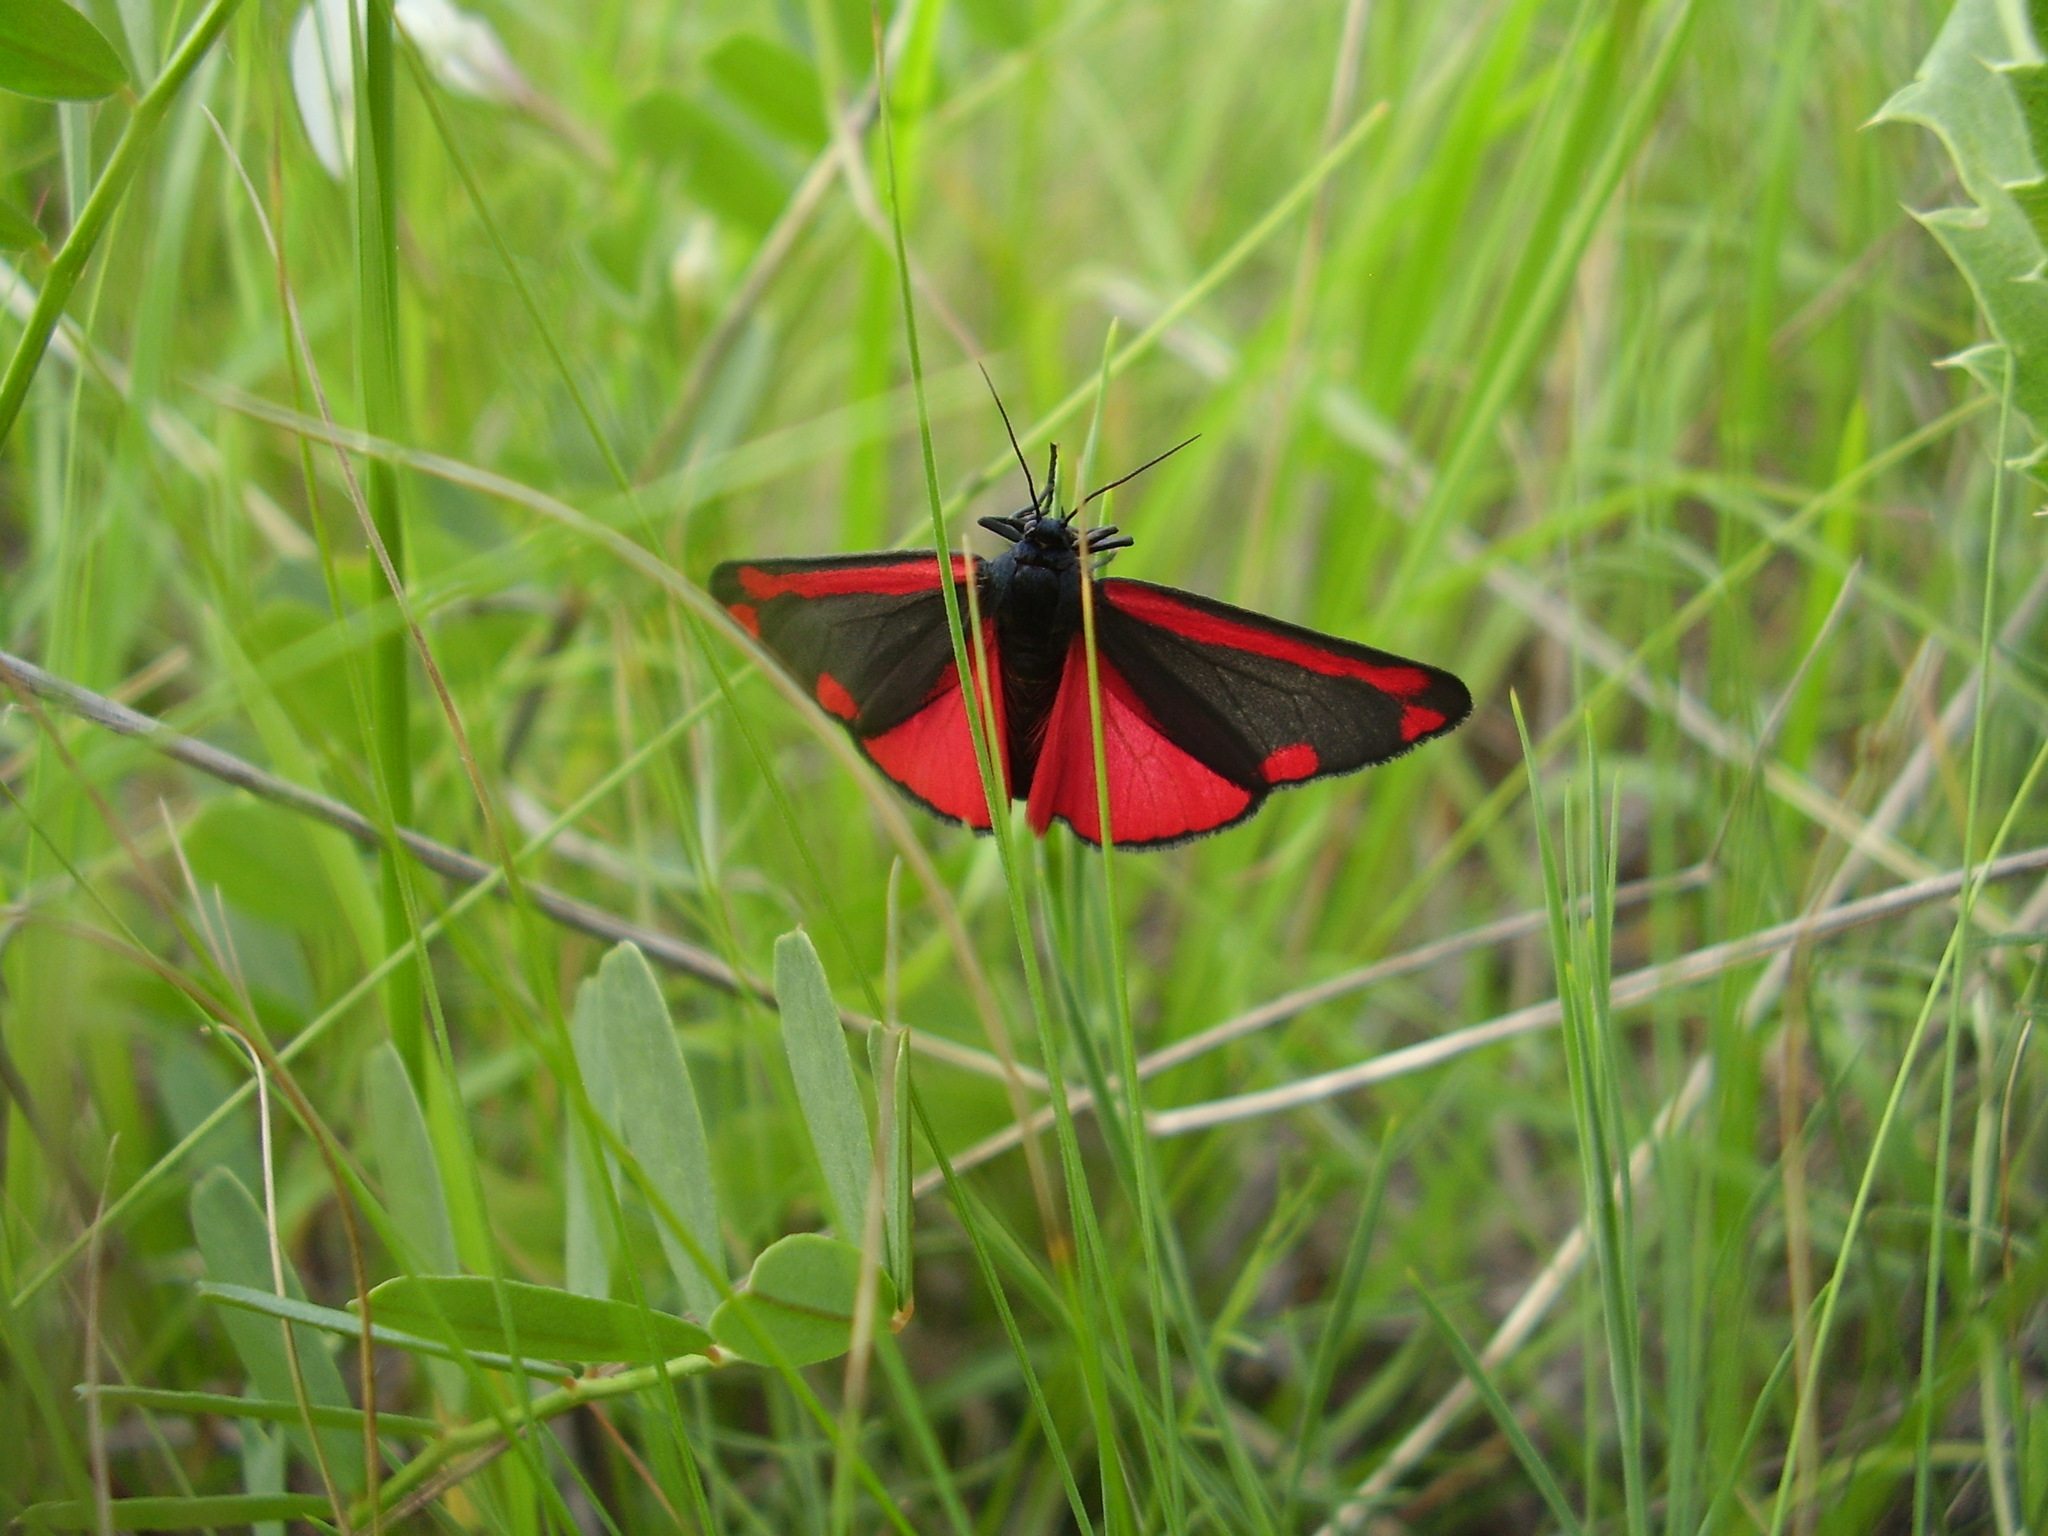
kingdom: Animalia
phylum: Arthropoda
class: Insecta
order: Lepidoptera
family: Erebidae
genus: Tyria
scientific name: Tyria jacobaeae
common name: Cinnabar
